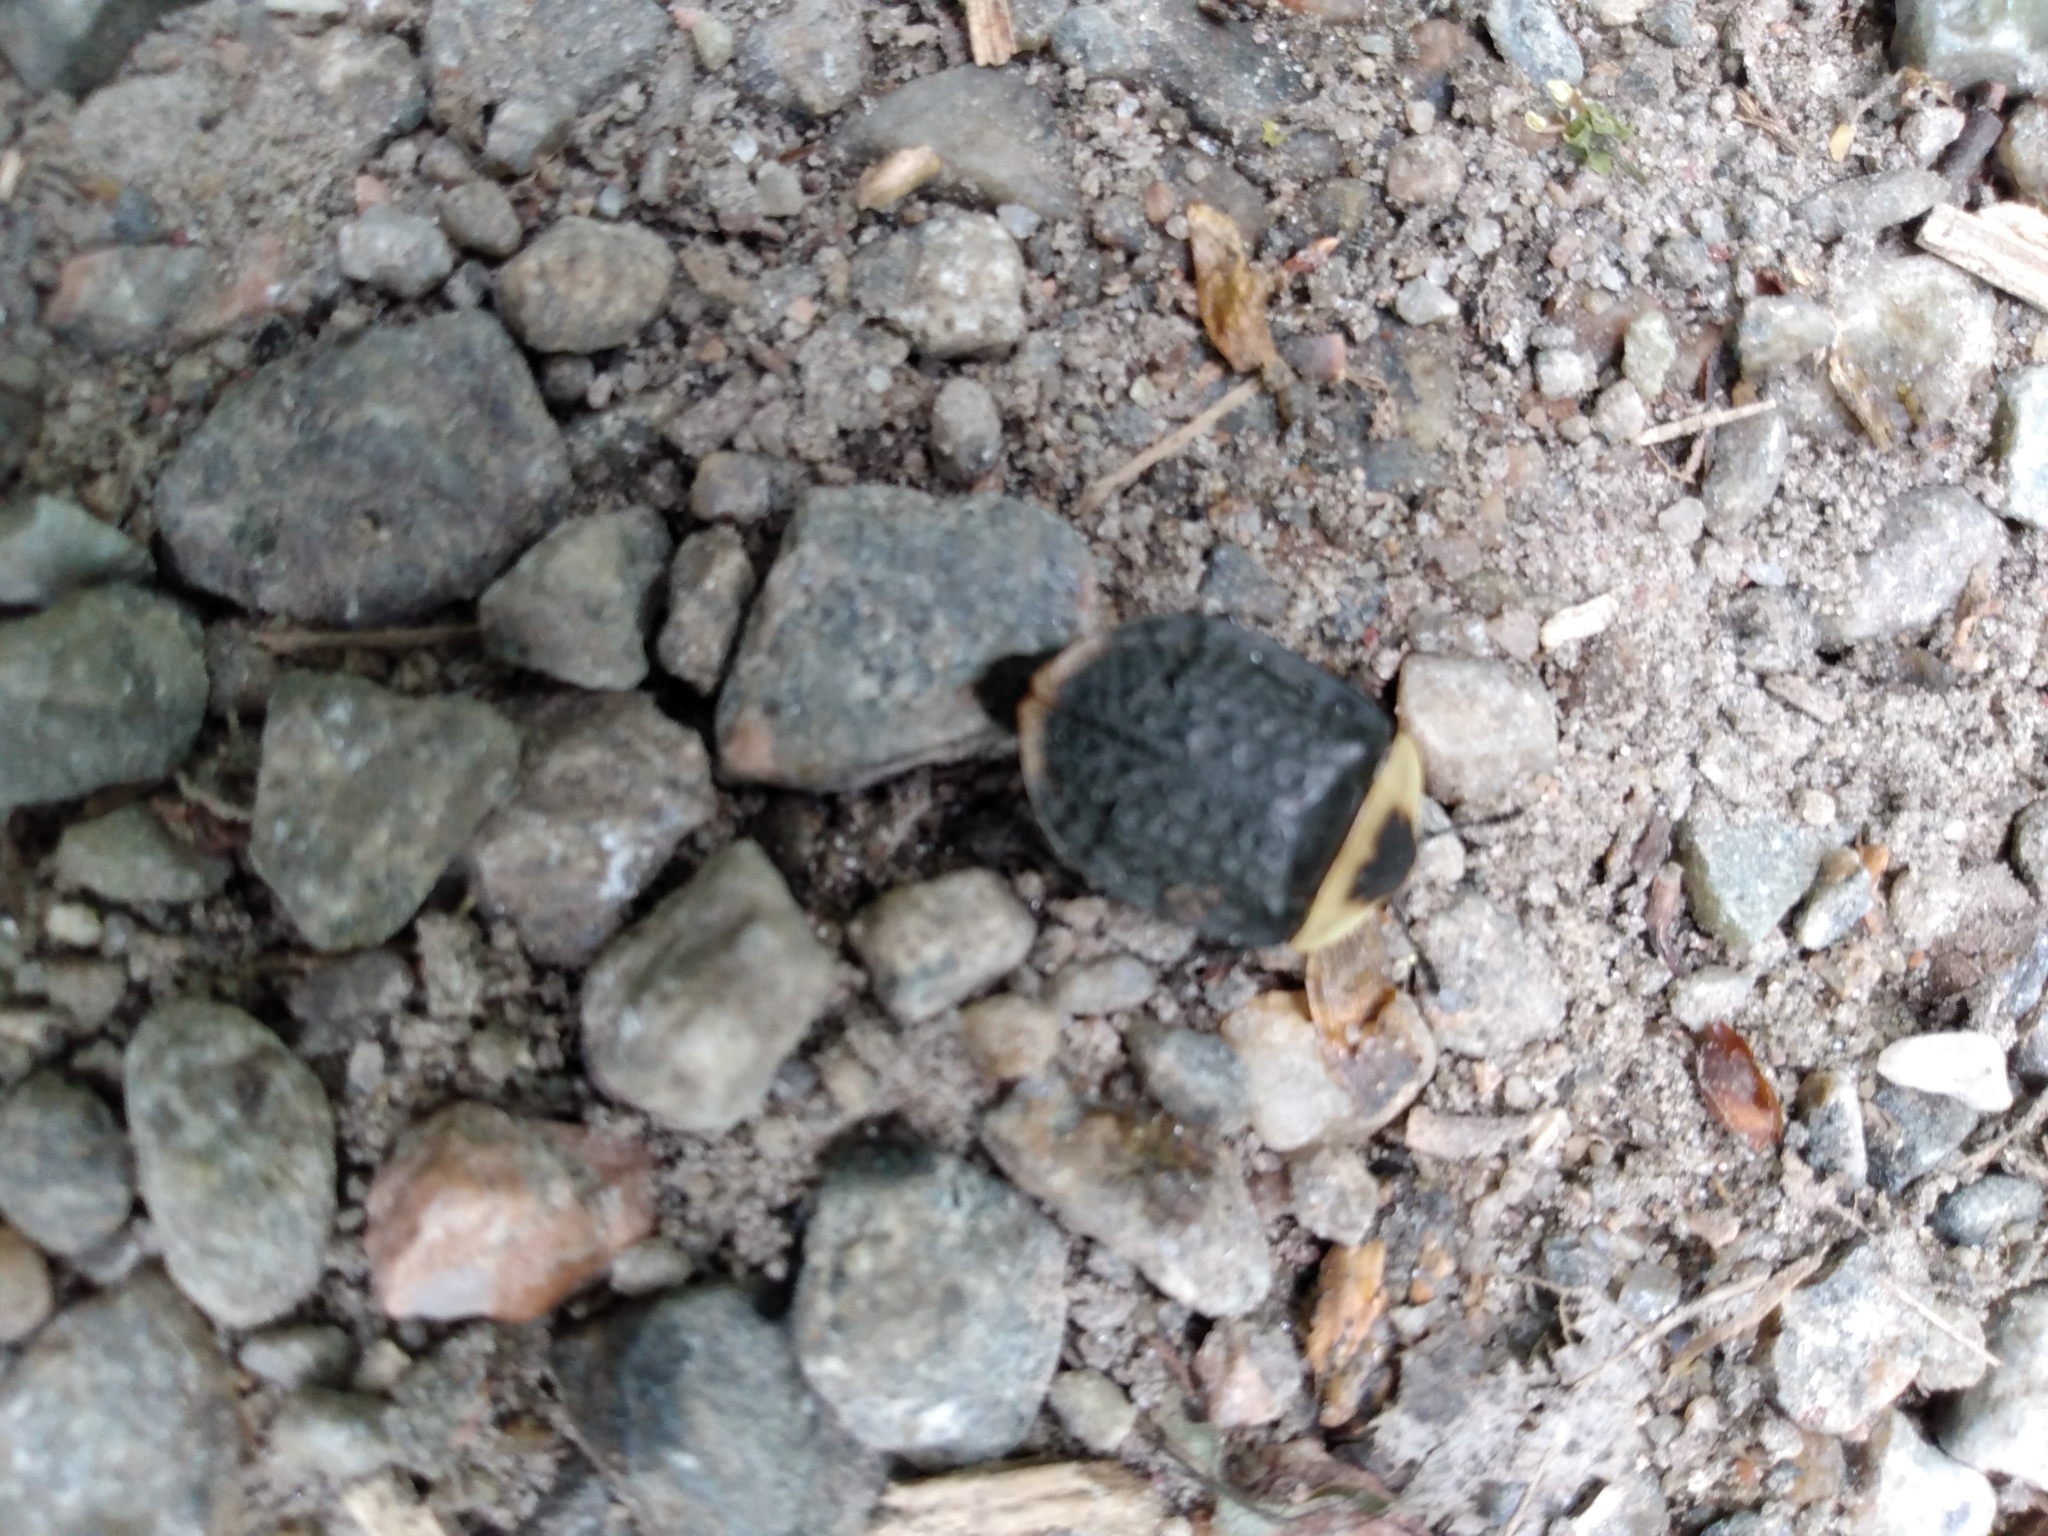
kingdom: Animalia
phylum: Arthropoda
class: Insecta
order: Coleoptera
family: Staphylinidae
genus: Necrophila
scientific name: Necrophila americana
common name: American carrion beetle
